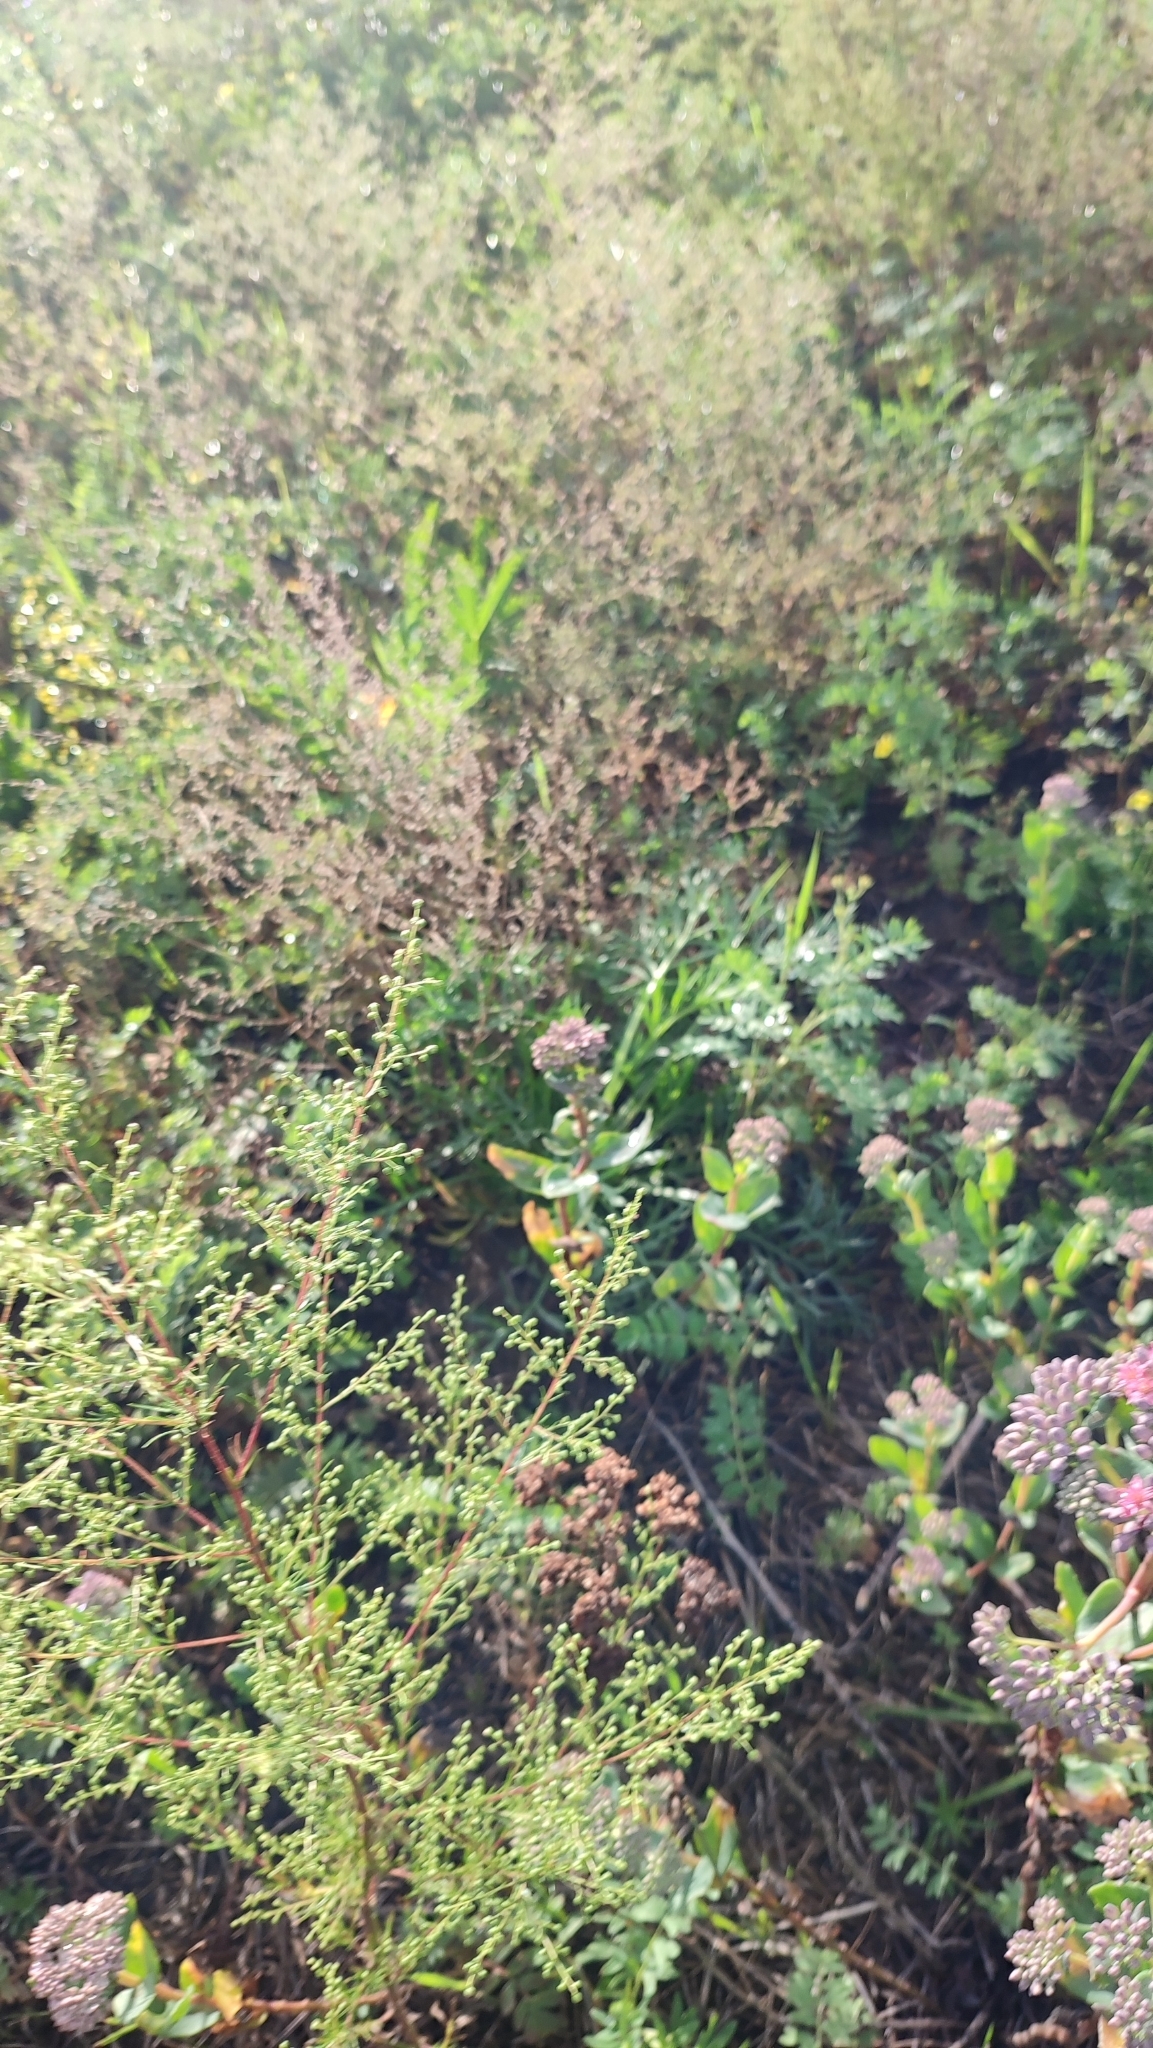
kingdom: Plantae
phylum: Tracheophyta
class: Magnoliopsida
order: Saxifragales
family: Crassulaceae
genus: Hylotelephium
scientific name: Hylotelephium telephium
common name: Live-forever
